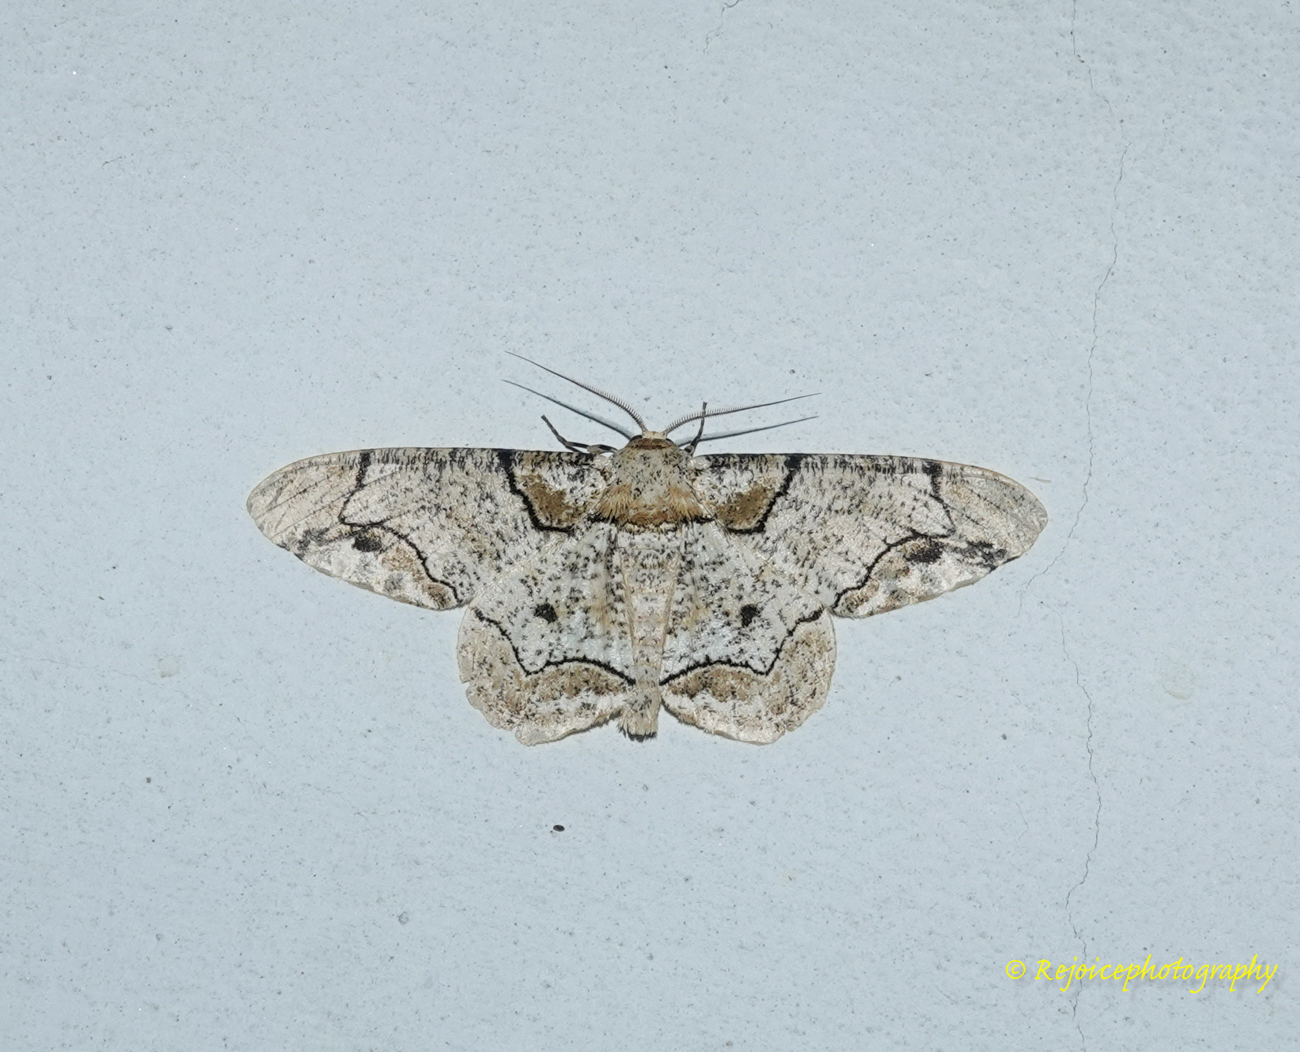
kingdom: Animalia
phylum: Arthropoda
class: Insecta
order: Lepidoptera
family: Geometridae
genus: Biston
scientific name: Biston bengaliaria
